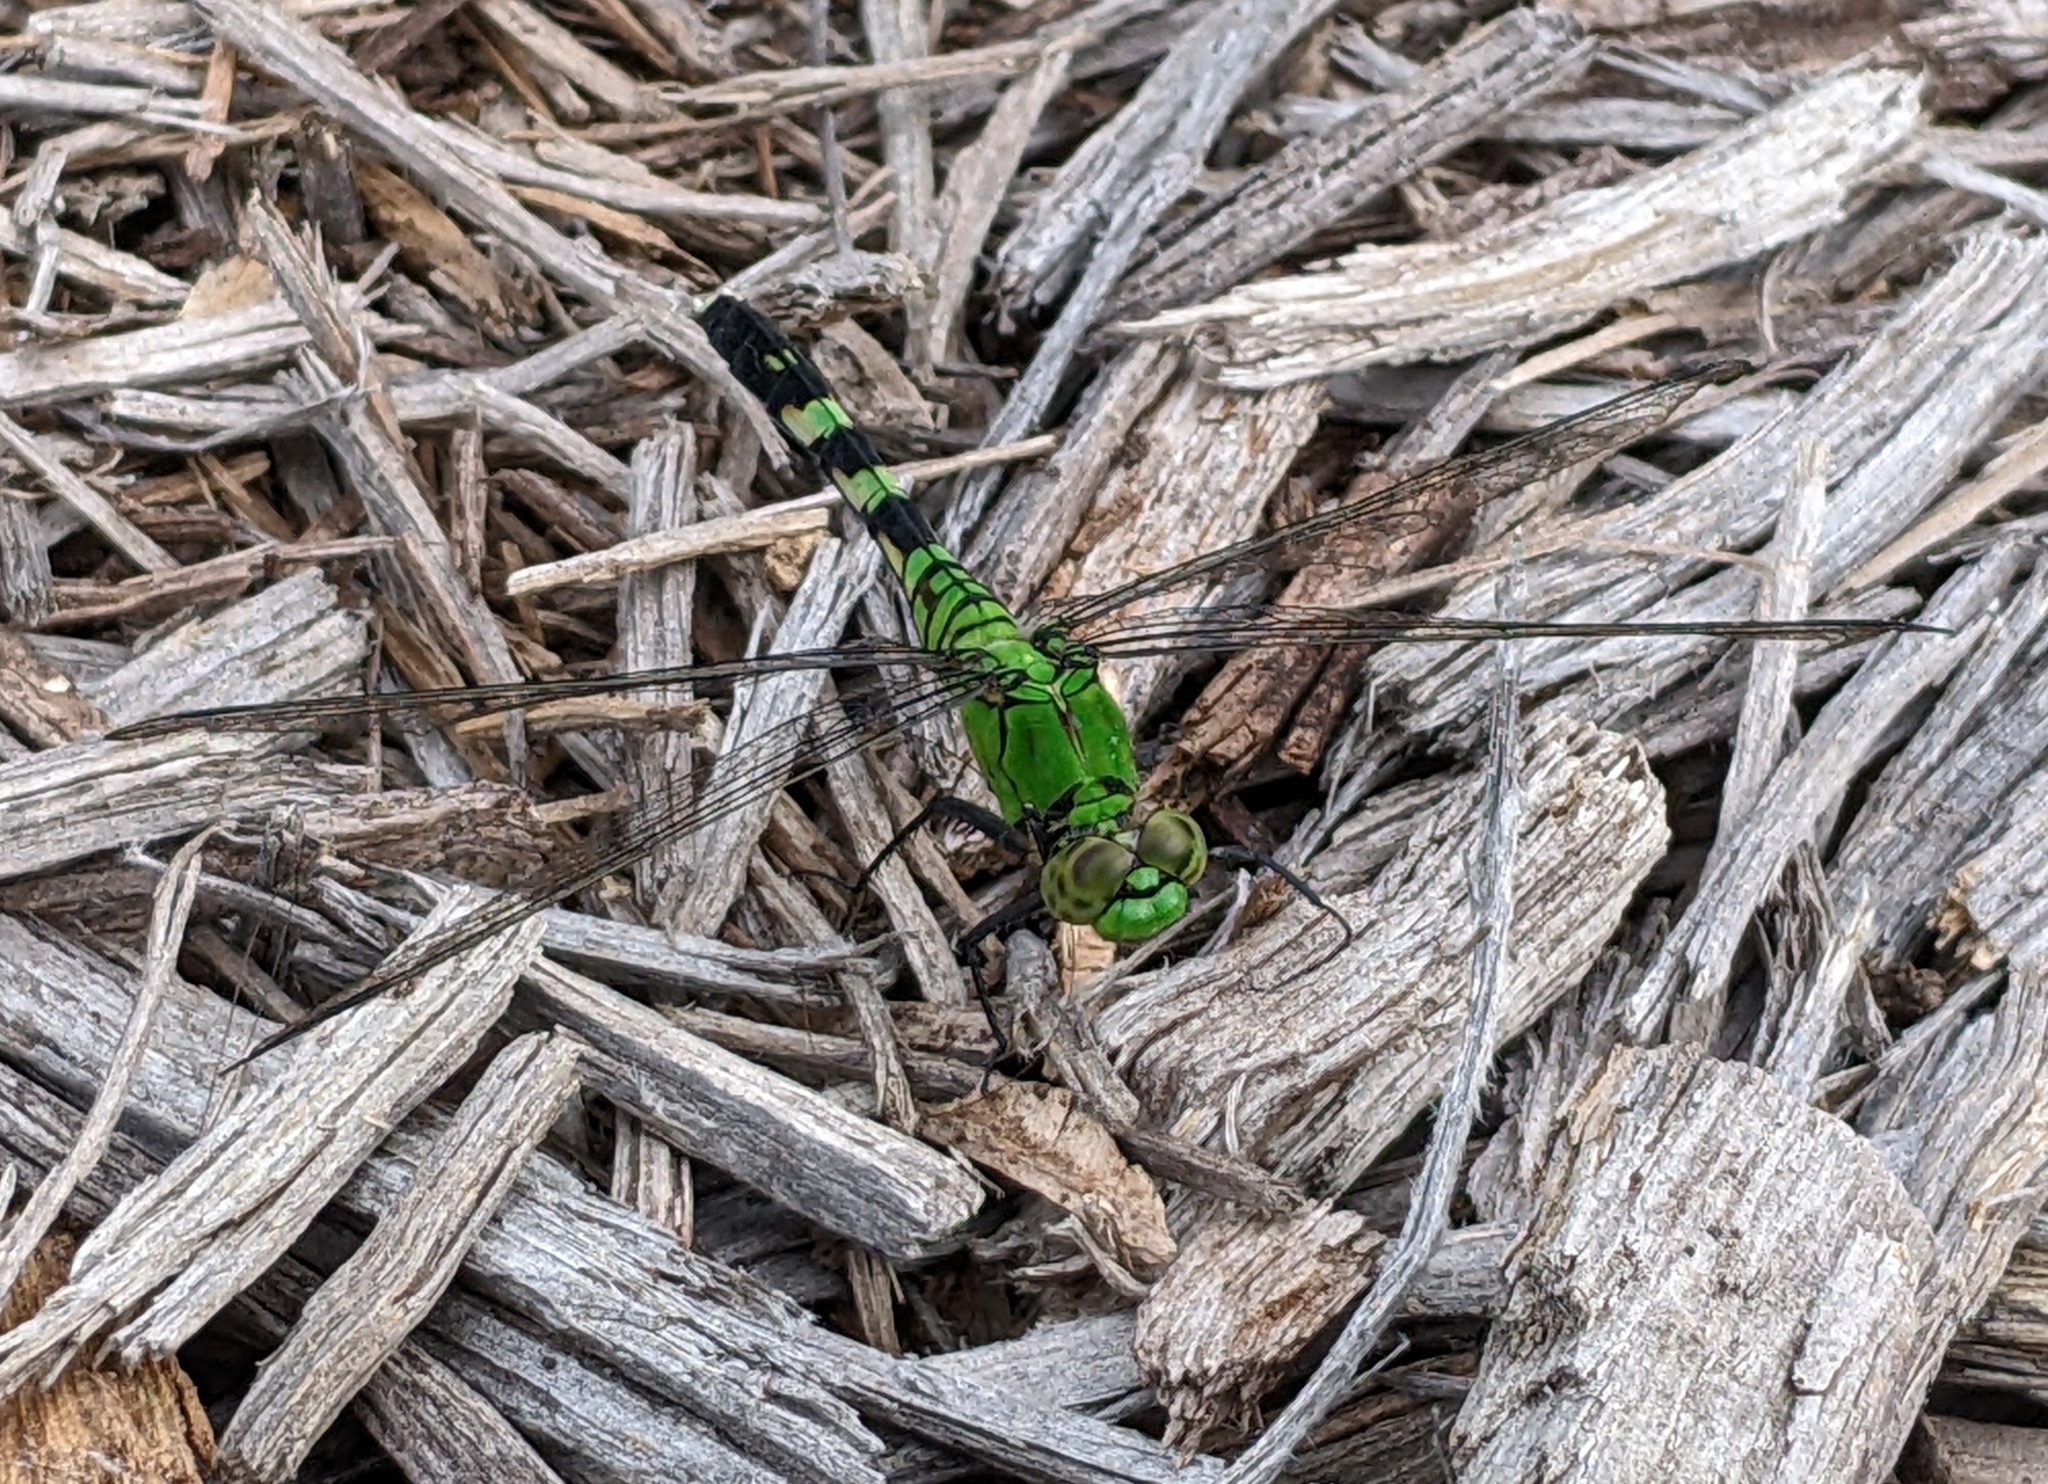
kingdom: Animalia
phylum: Arthropoda
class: Insecta
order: Odonata
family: Libellulidae
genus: Erythemis
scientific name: Erythemis simplicicollis
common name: Eastern pondhawk
